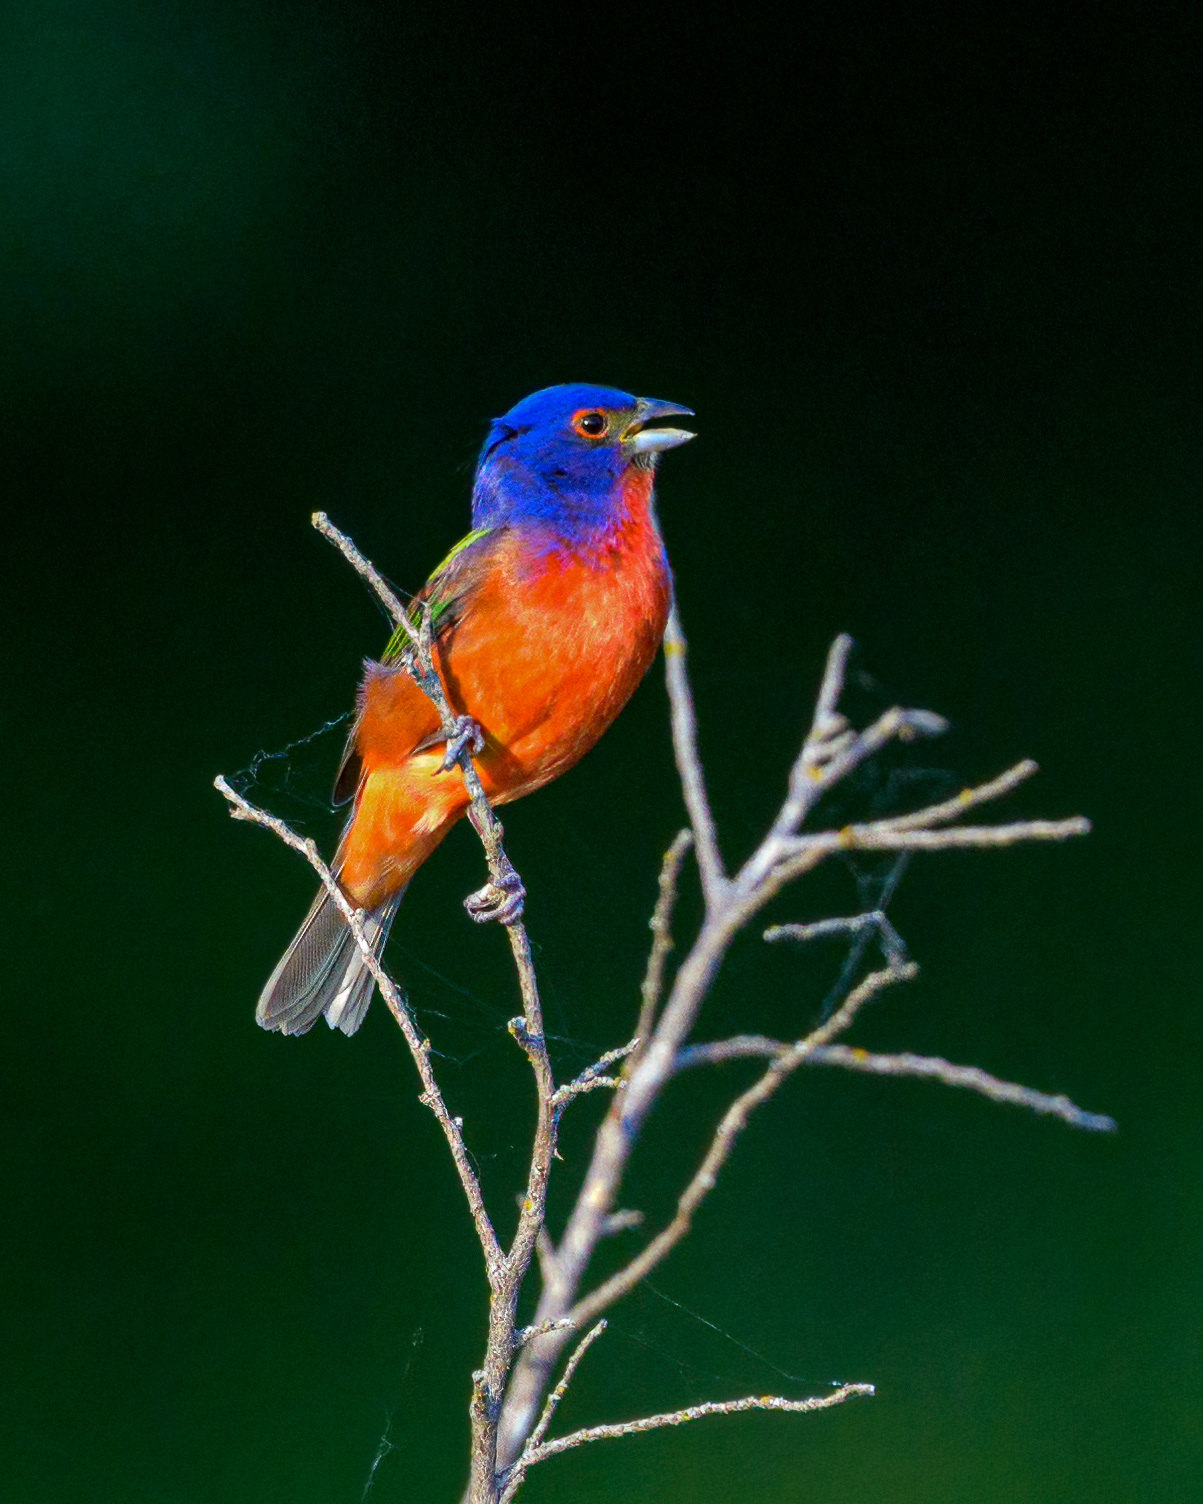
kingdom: Animalia
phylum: Chordata
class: Aves
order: Passeriformes
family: Cardinalidae
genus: Passerina
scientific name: Passerina ciris
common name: Painted bunting
